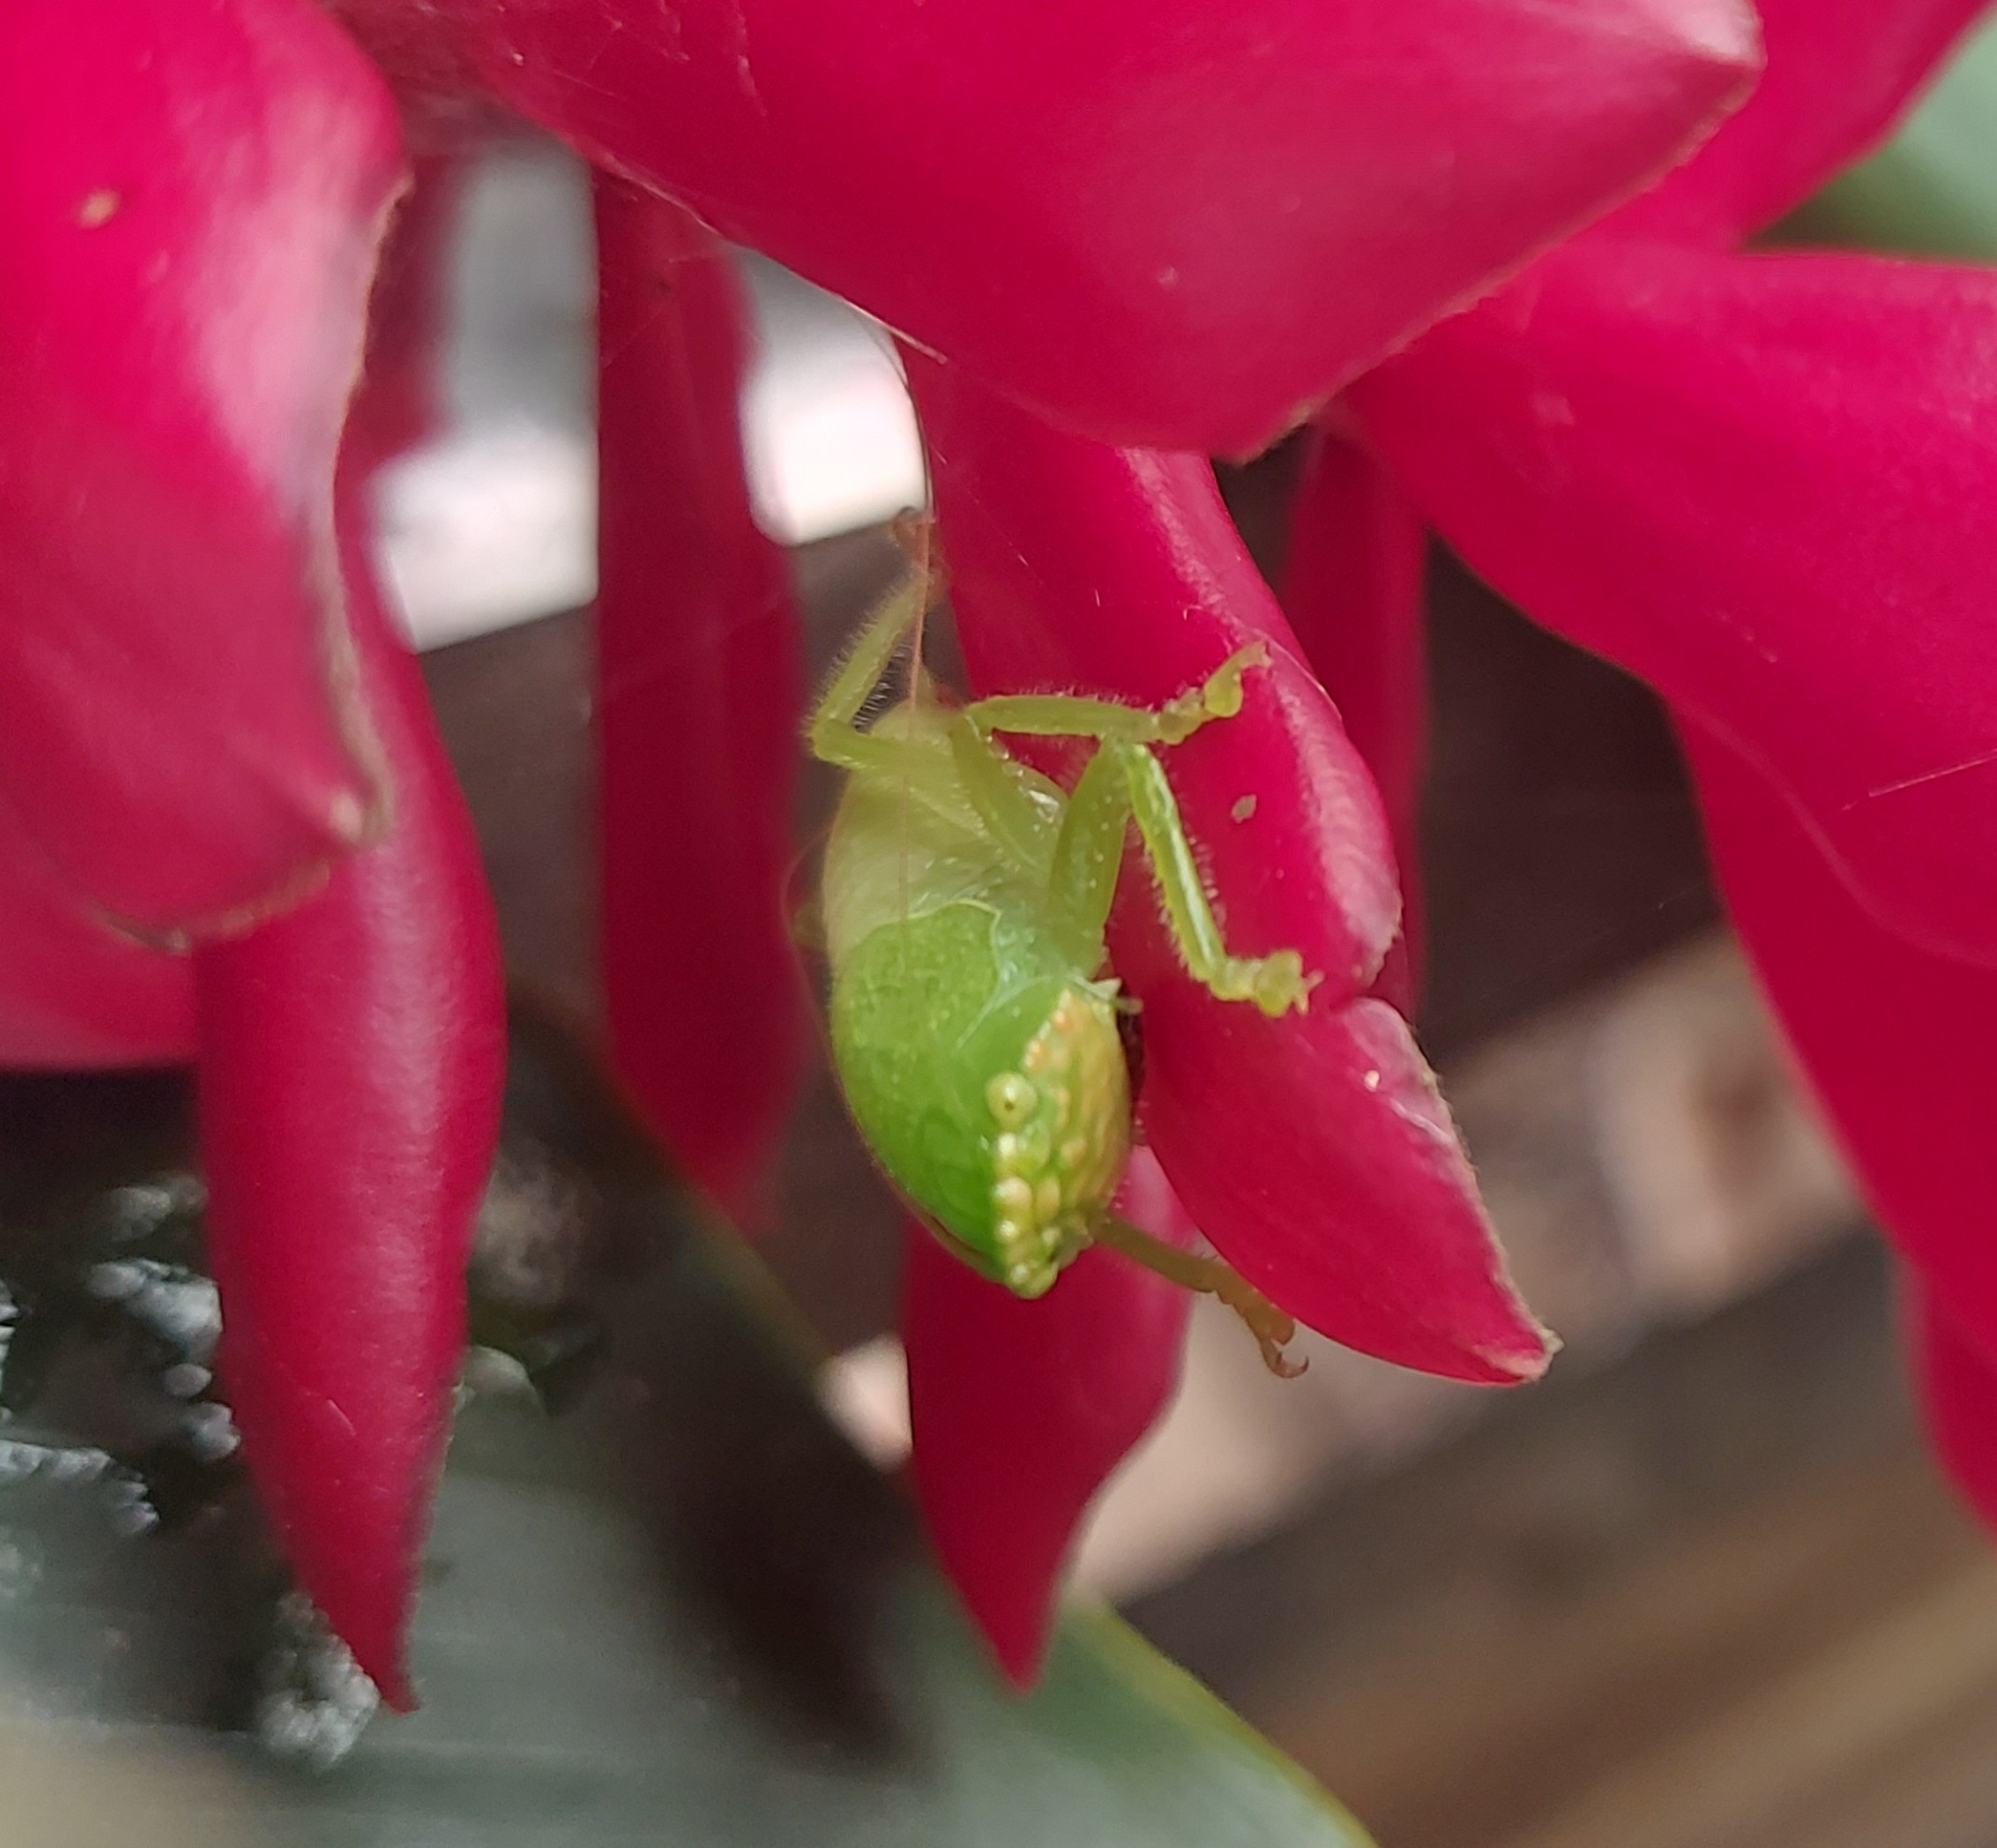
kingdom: Animalia
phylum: Arthropoda
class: Insecta
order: Orthoptera
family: Tettigoniidae
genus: Lirometopum
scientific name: Lirometopum coronatum
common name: Pitbull katydid
